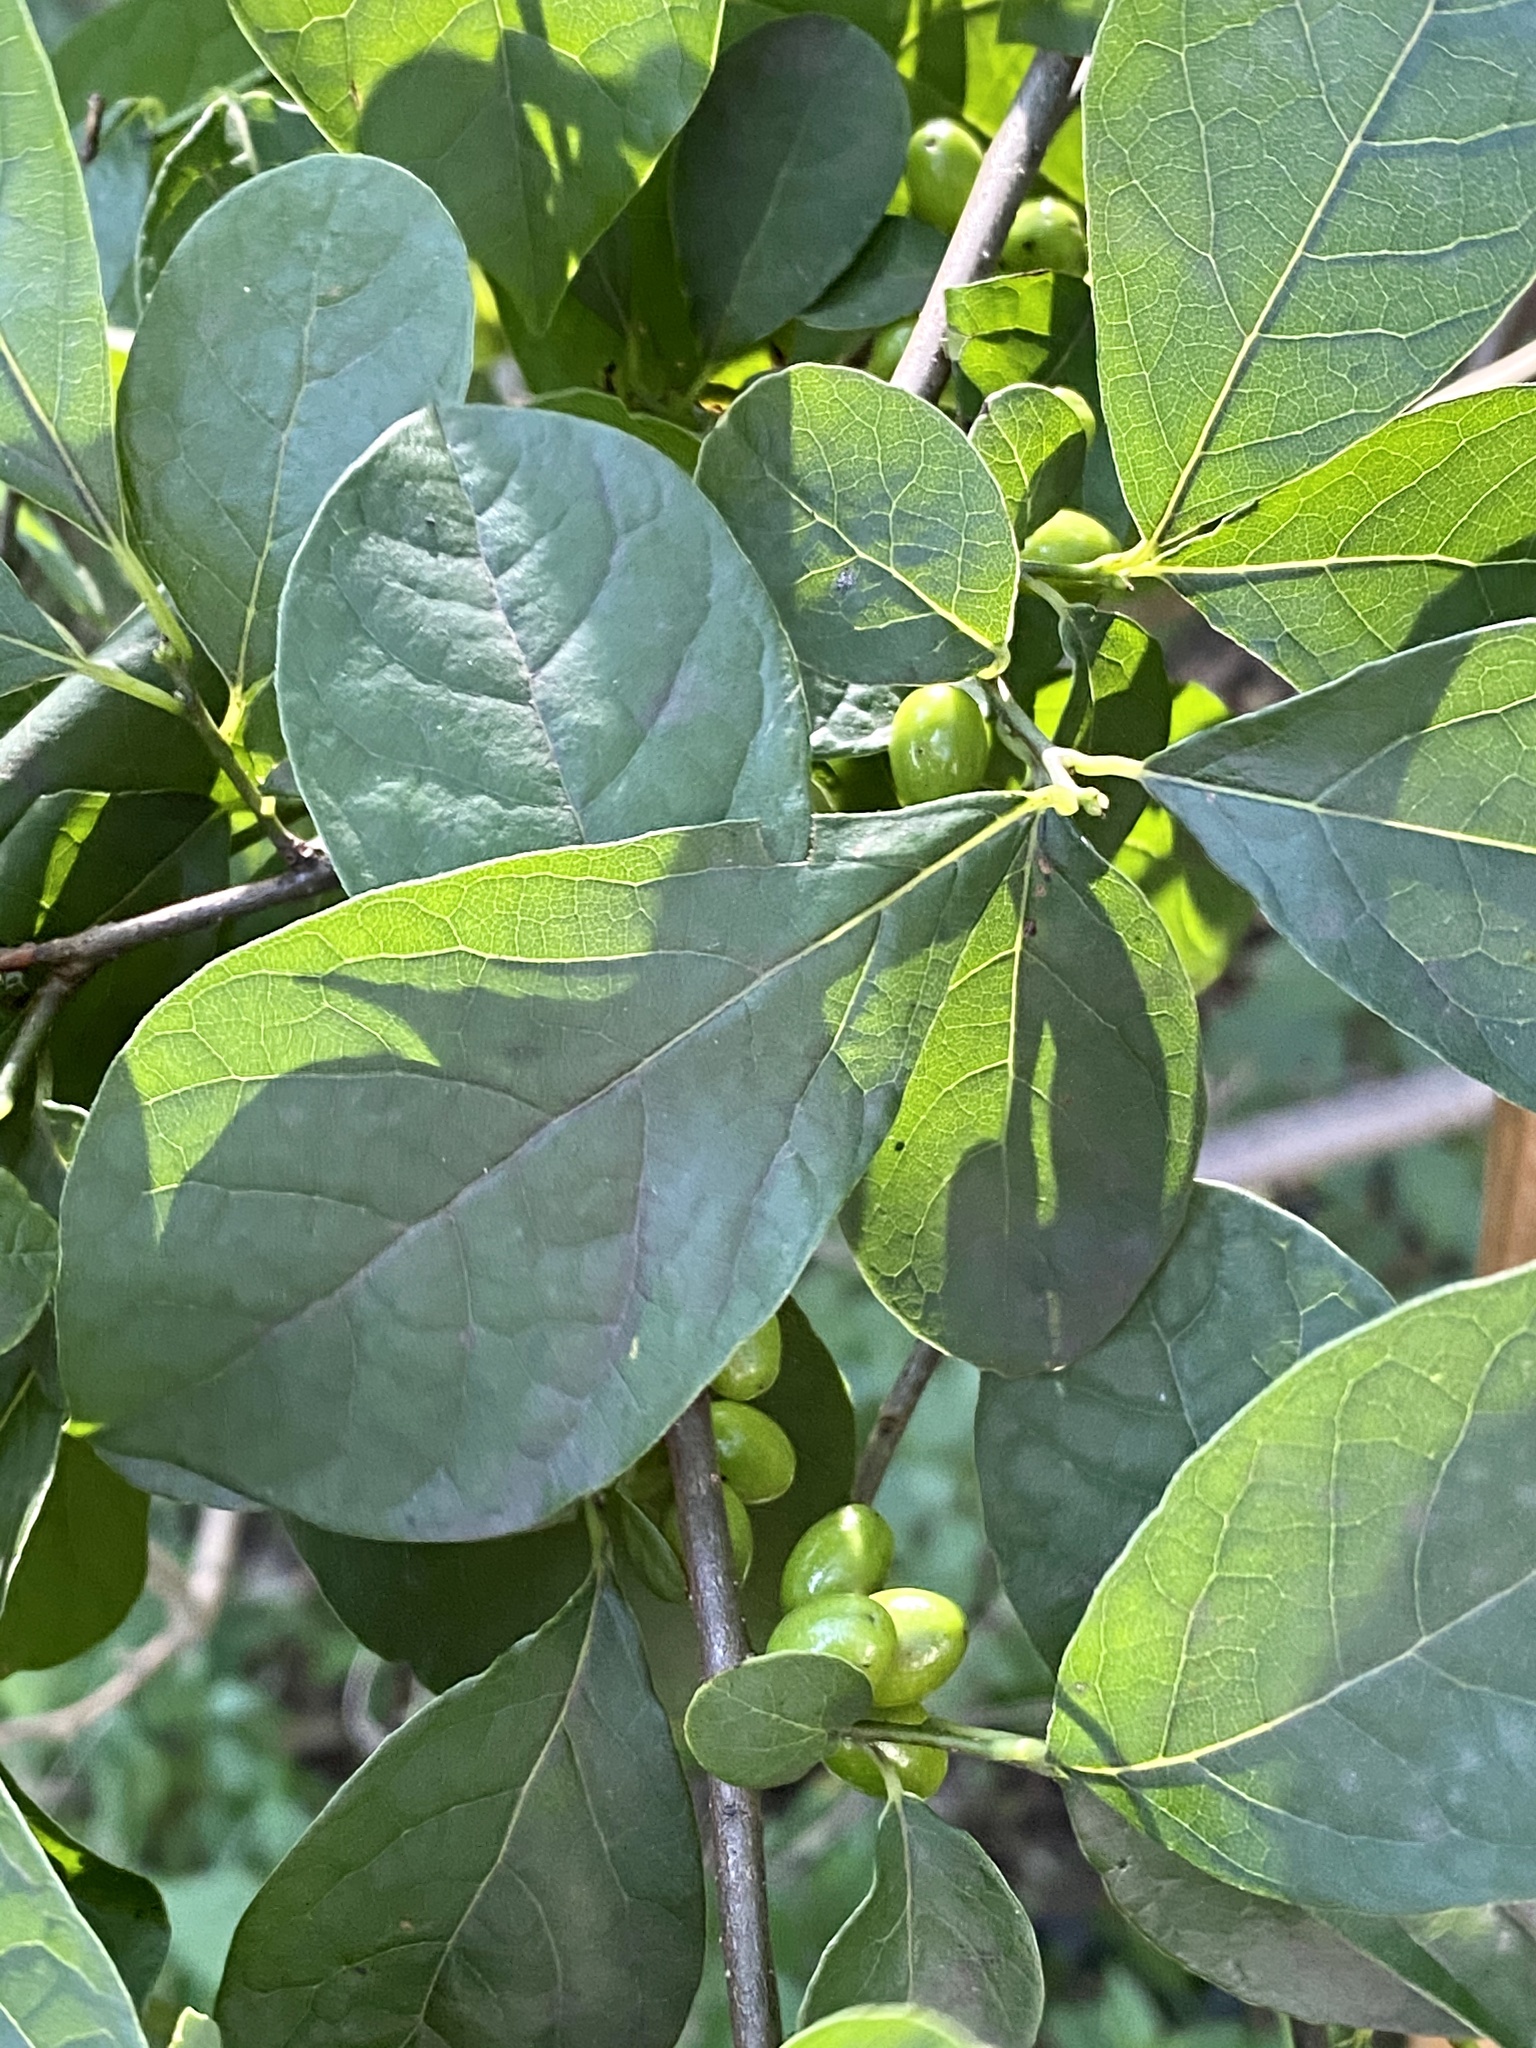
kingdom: Plantae
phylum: Tracheophyta
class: Magnoliopsida
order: Laurales
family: Lauraceae
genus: Lindera
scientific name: Lindera benzoin
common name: Spicebush
